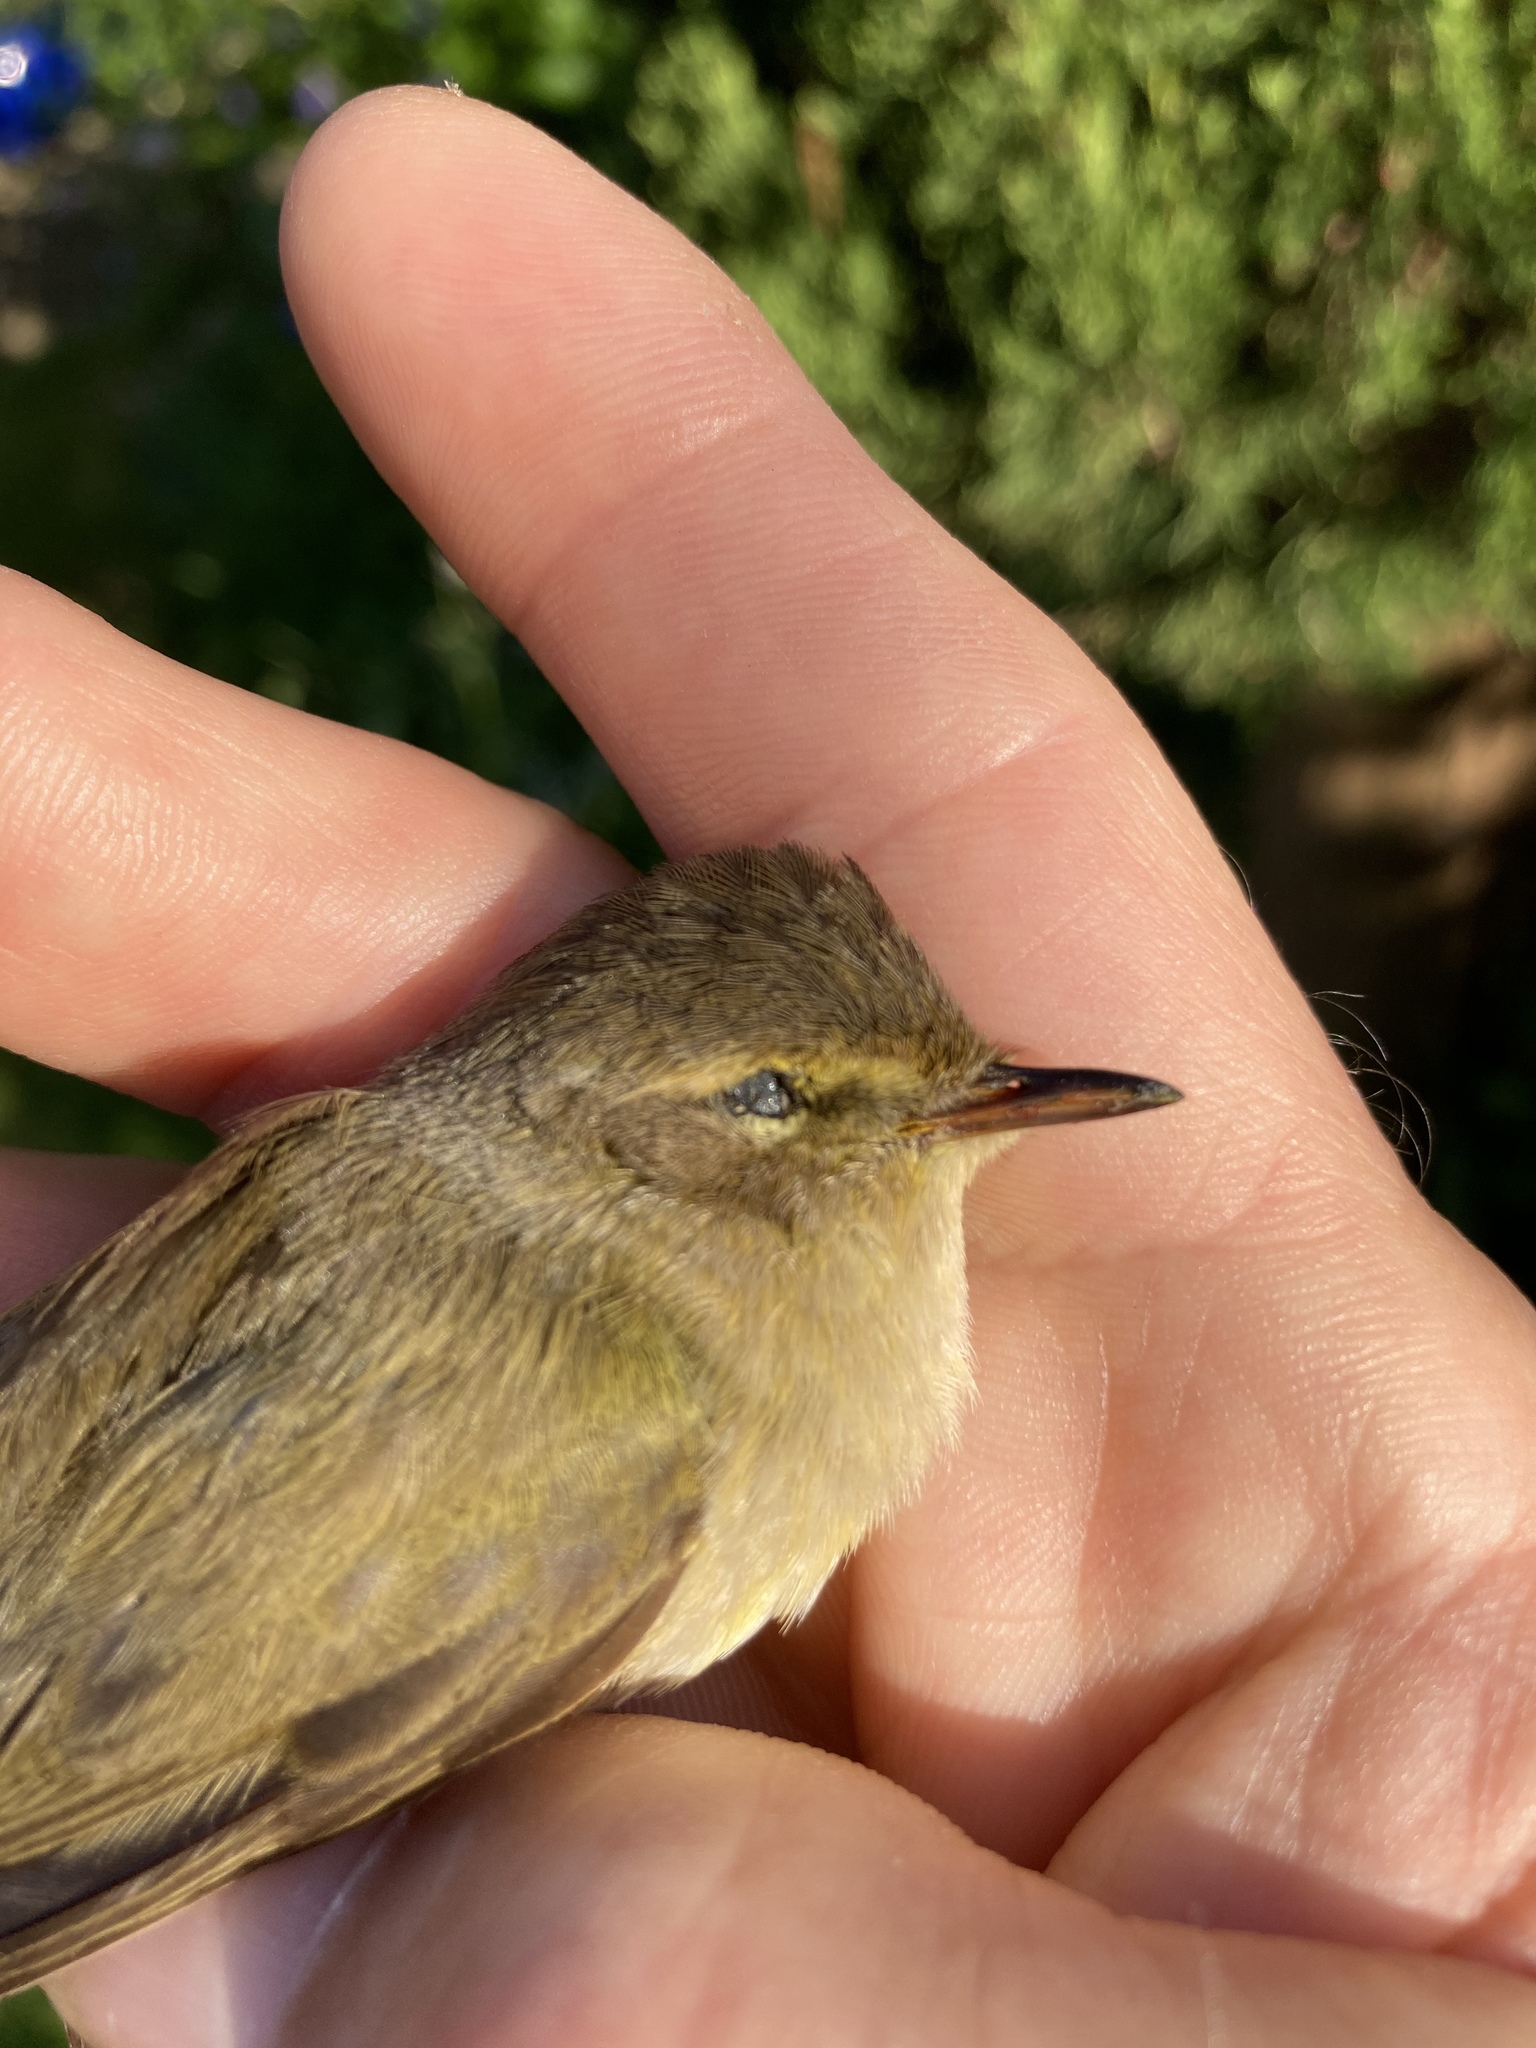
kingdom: Animalia
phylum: Chordata
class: Aves
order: Passeriformes
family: Phylloscopidae
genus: Phylloscopus
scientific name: Phylloscopus collybita
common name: Common chiffchaff
